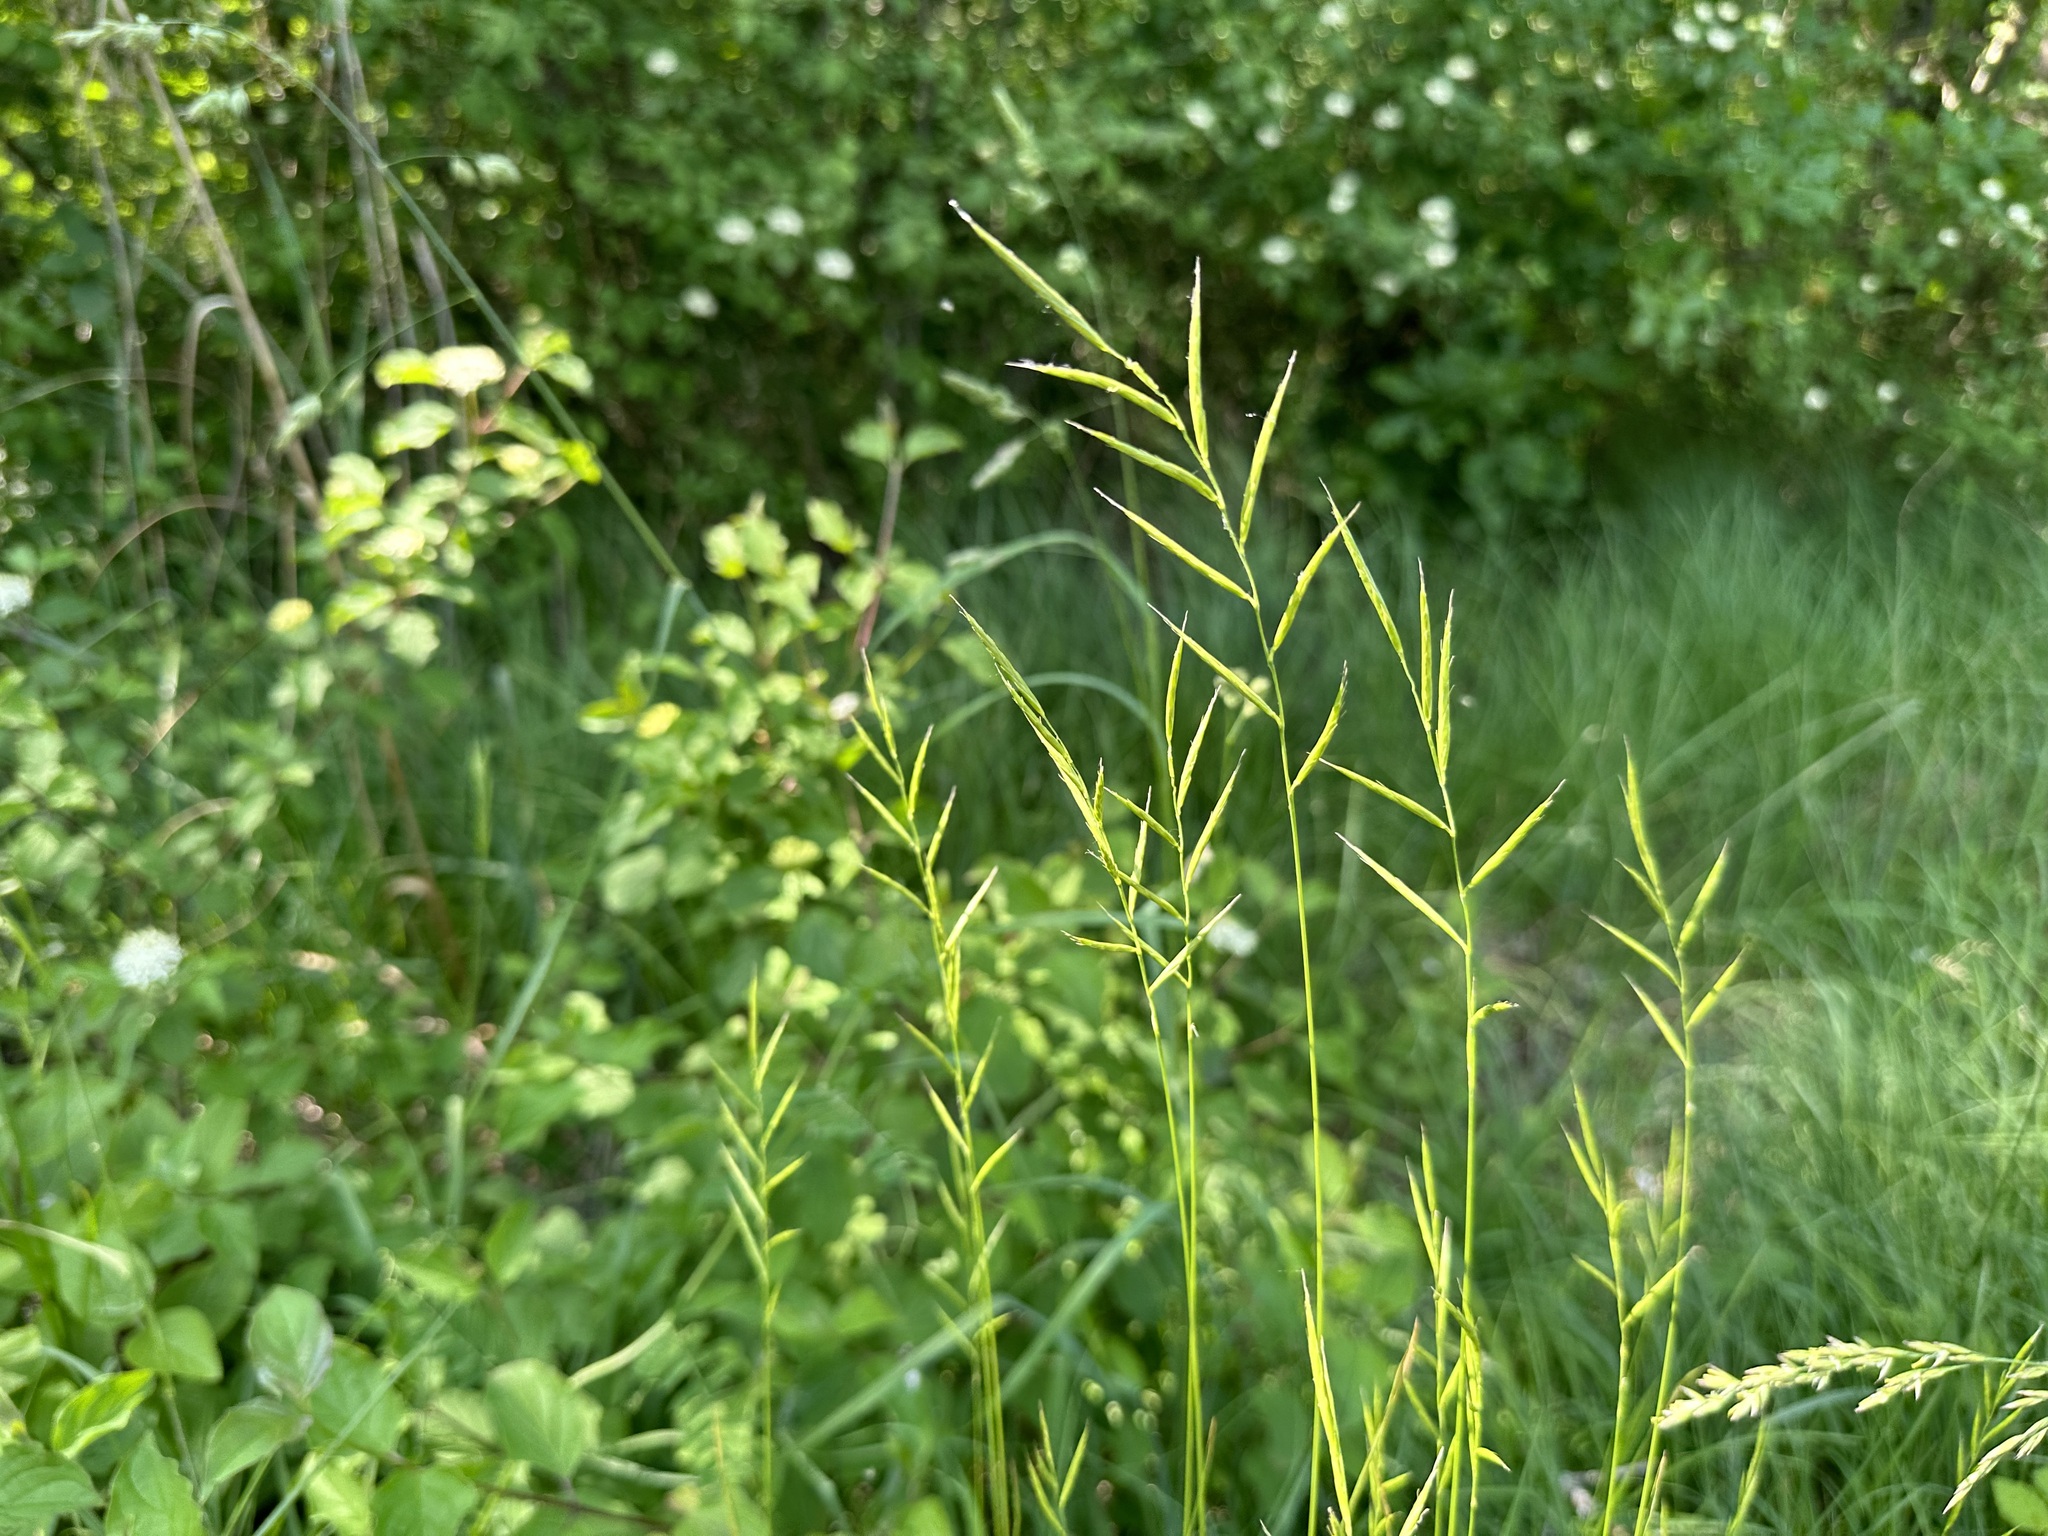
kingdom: Plantae
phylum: Tracheophyta
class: Liliopsida
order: Poales
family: Poaceae
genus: Brachypodium
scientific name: Brachypodium pinnatum
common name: Tor grass
